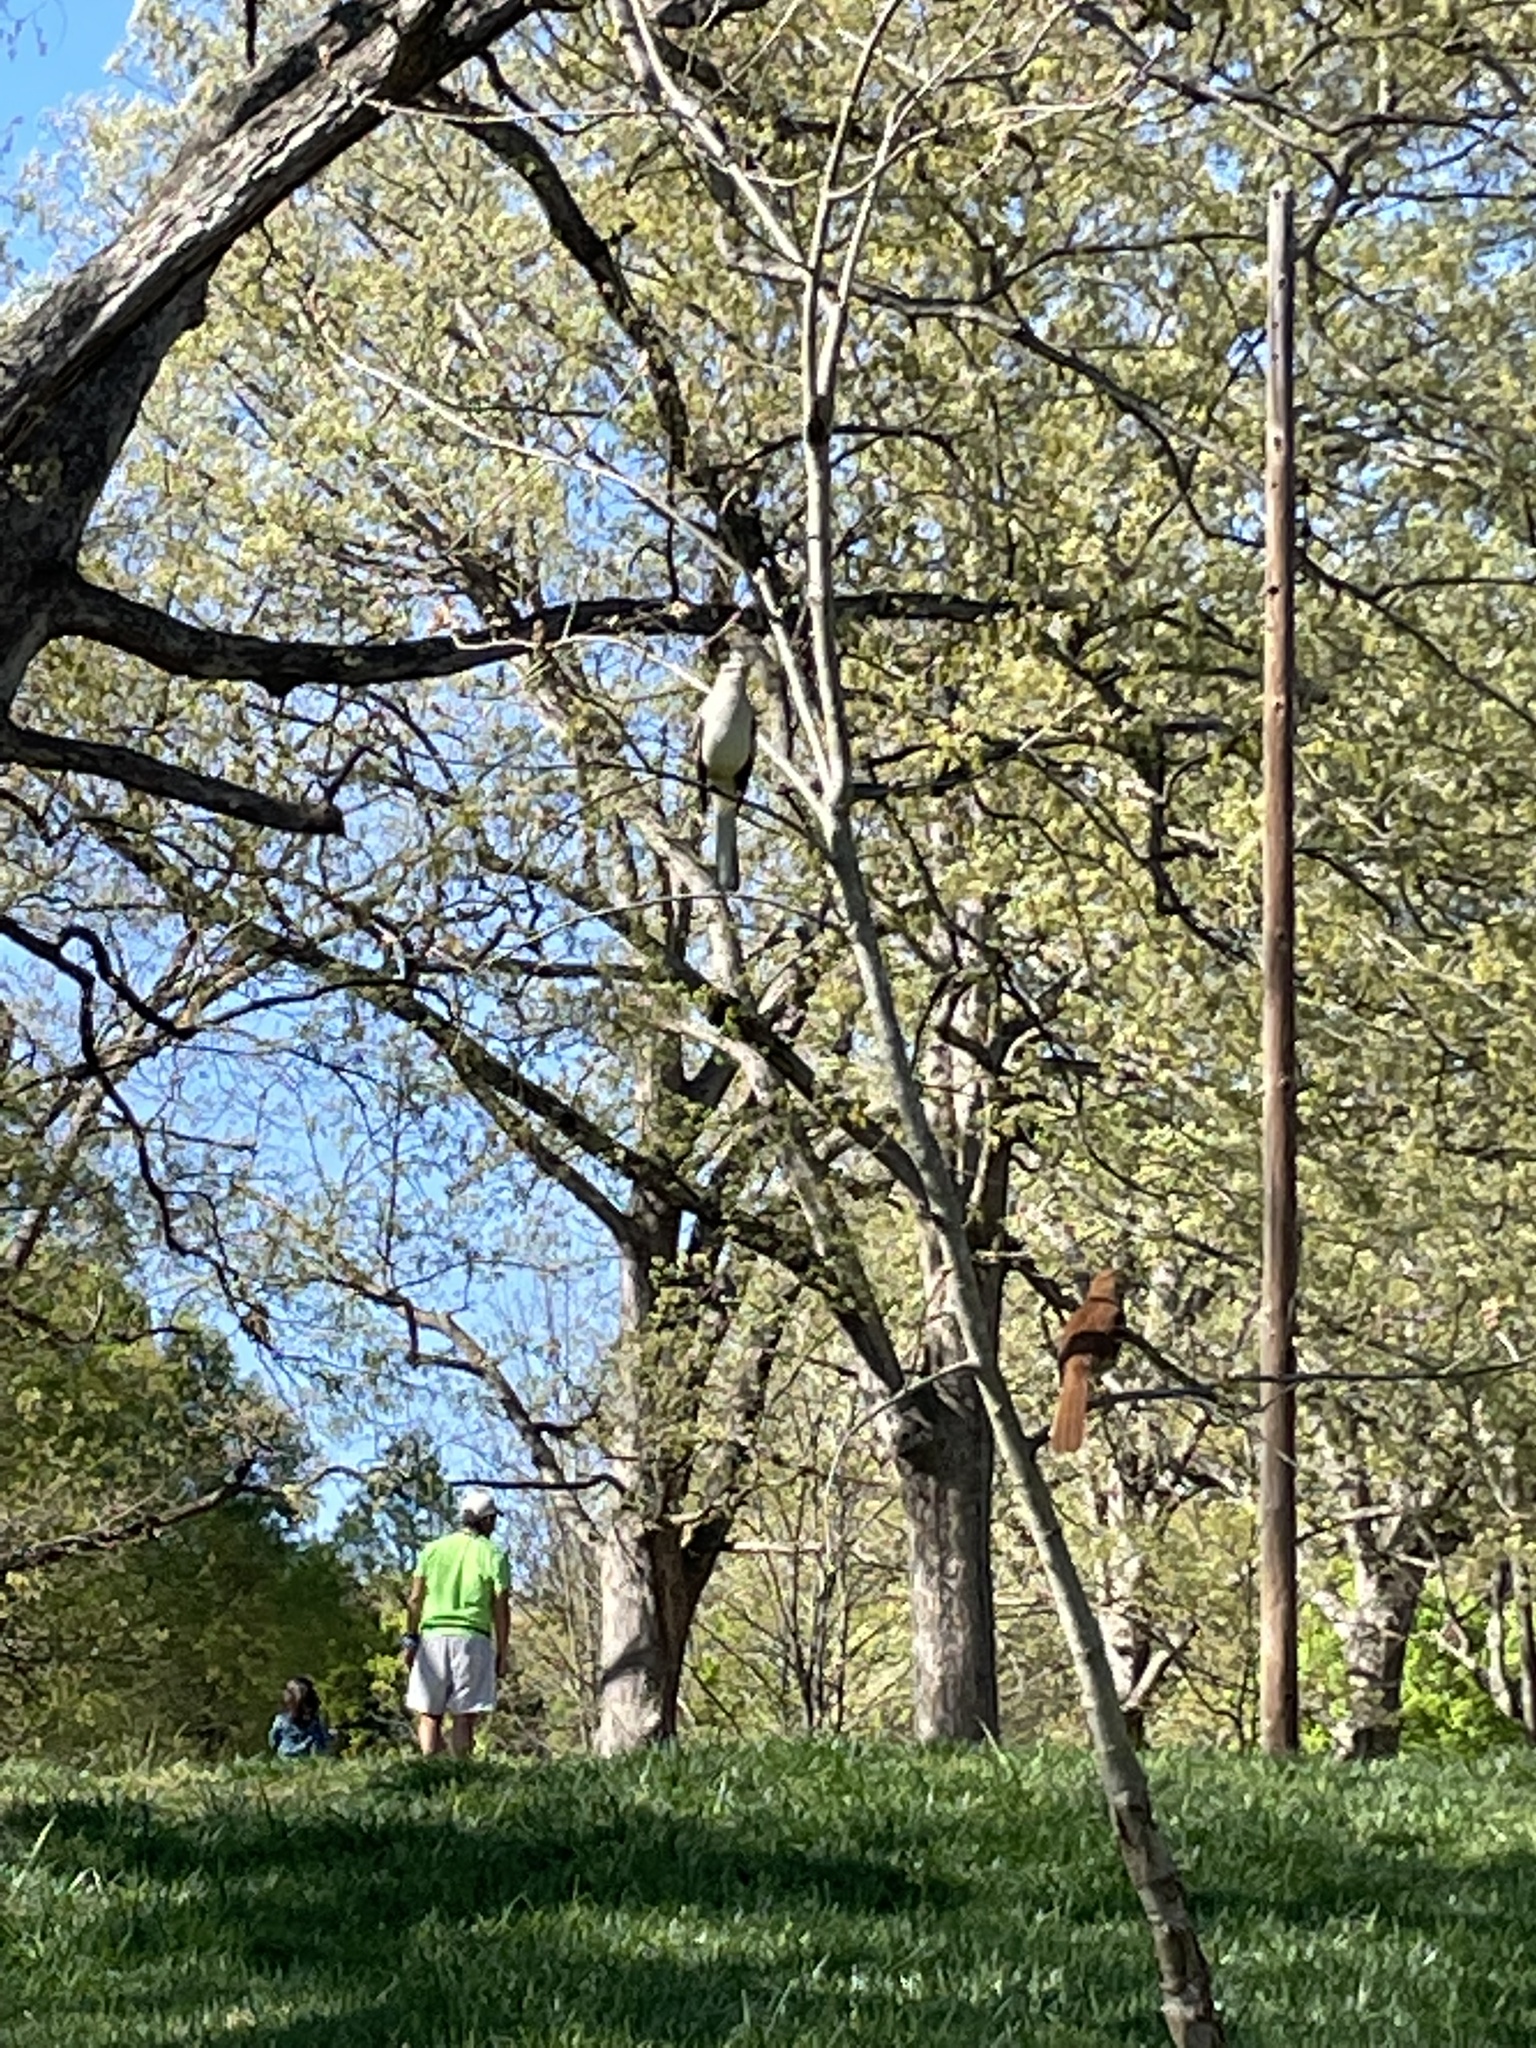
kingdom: Animalia
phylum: Chordata
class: Aves
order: Passeriformes
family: Mimidae
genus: Mimus
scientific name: Mimus polyglottos
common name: Northern mockingbird
